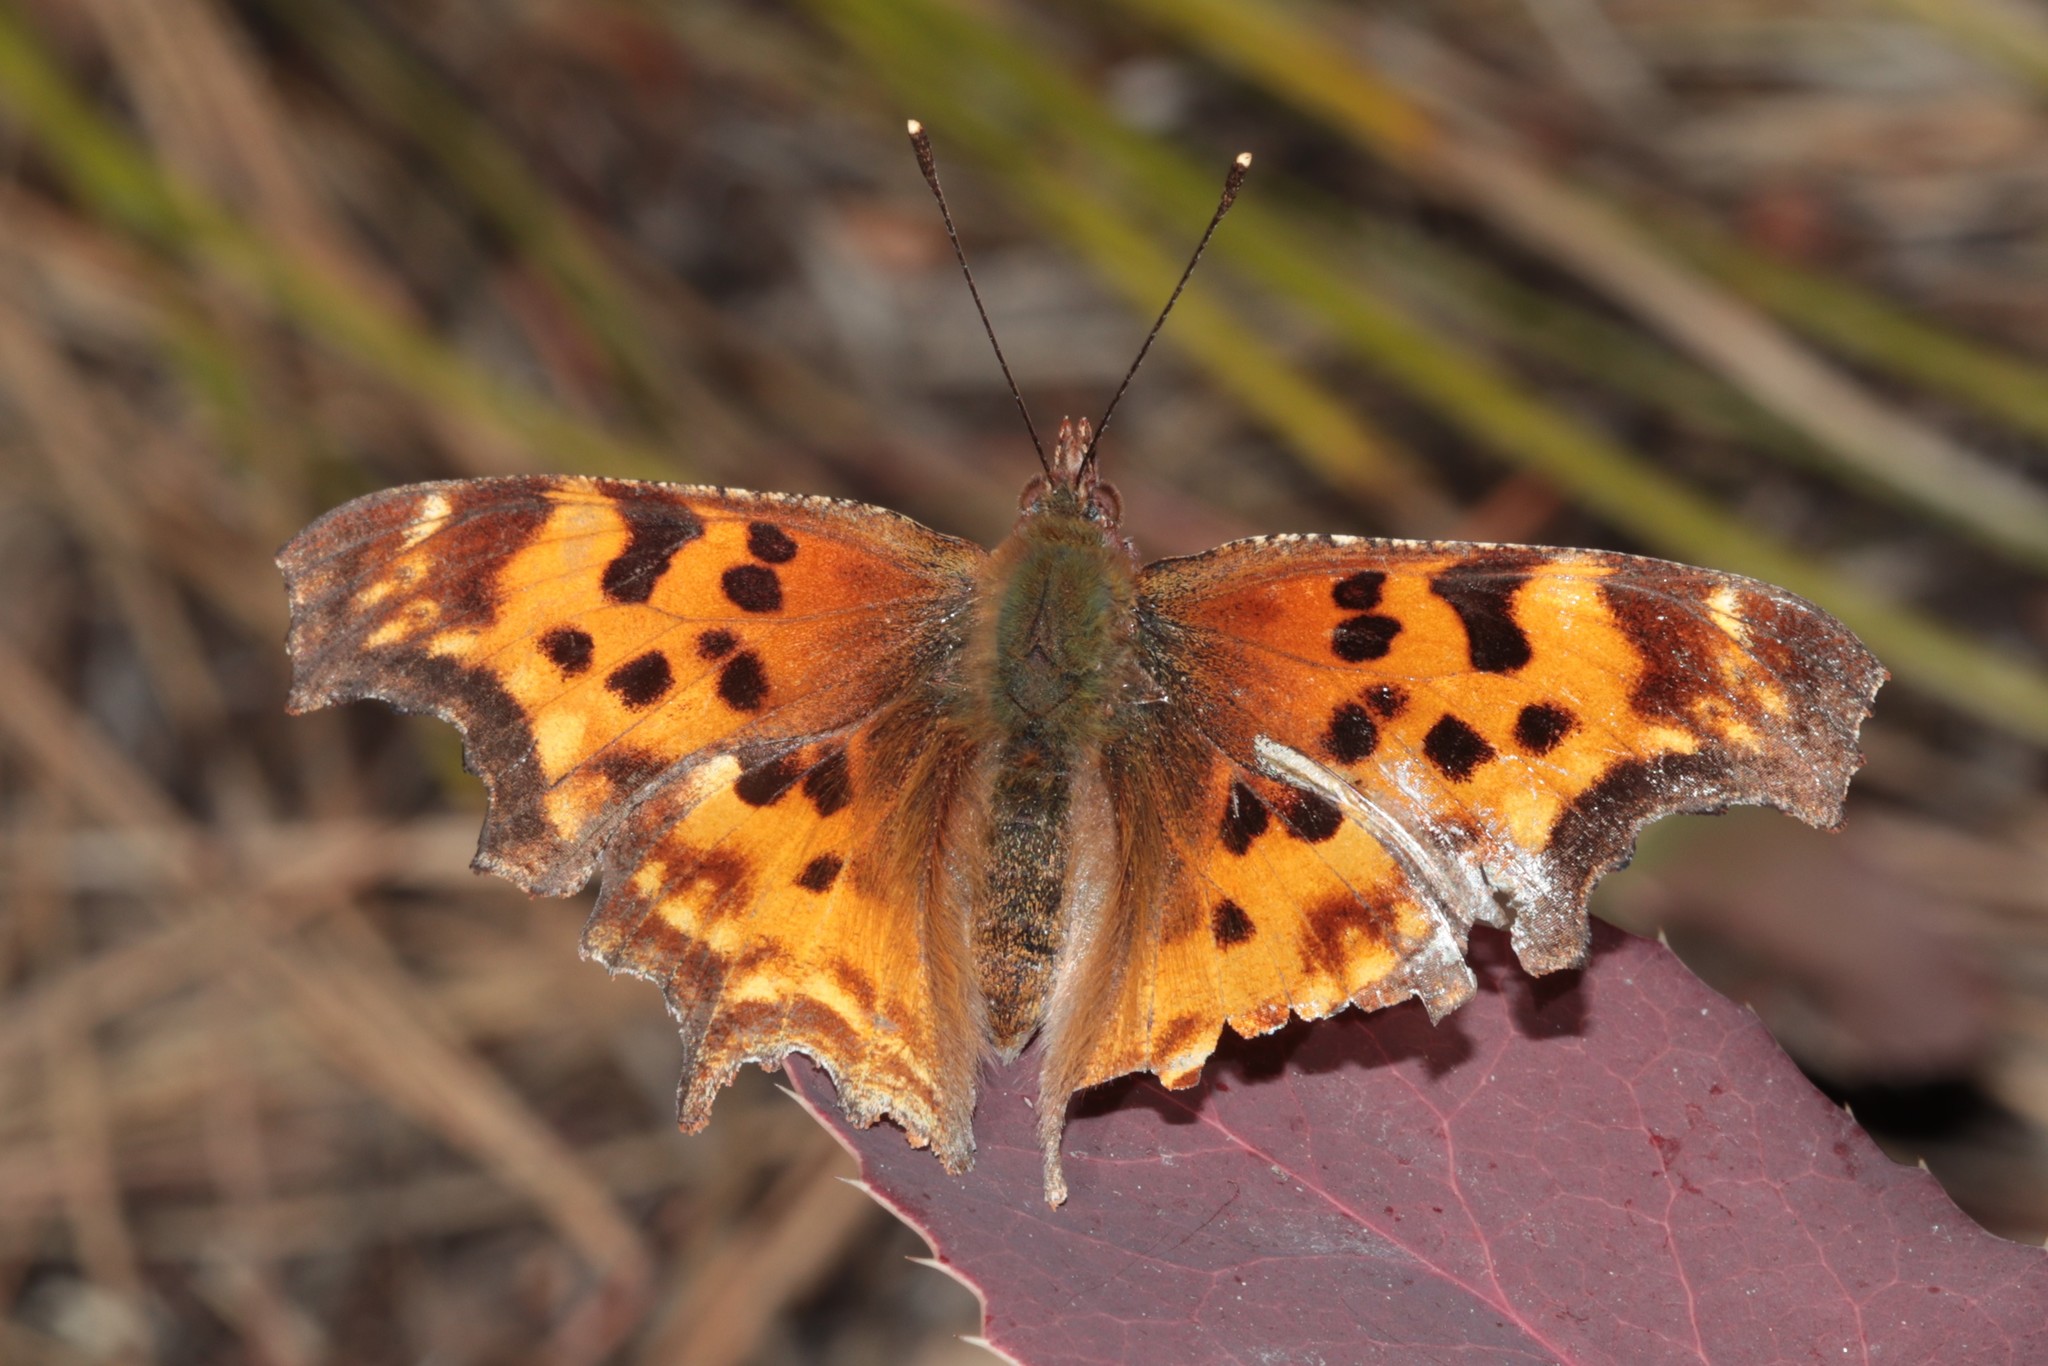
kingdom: Animalia
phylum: Arthropoda
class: Insecta
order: Lepidoptera
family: Nymphalidae
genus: Polygonia
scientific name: Polygonia satyrus
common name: Satyr angle wing
